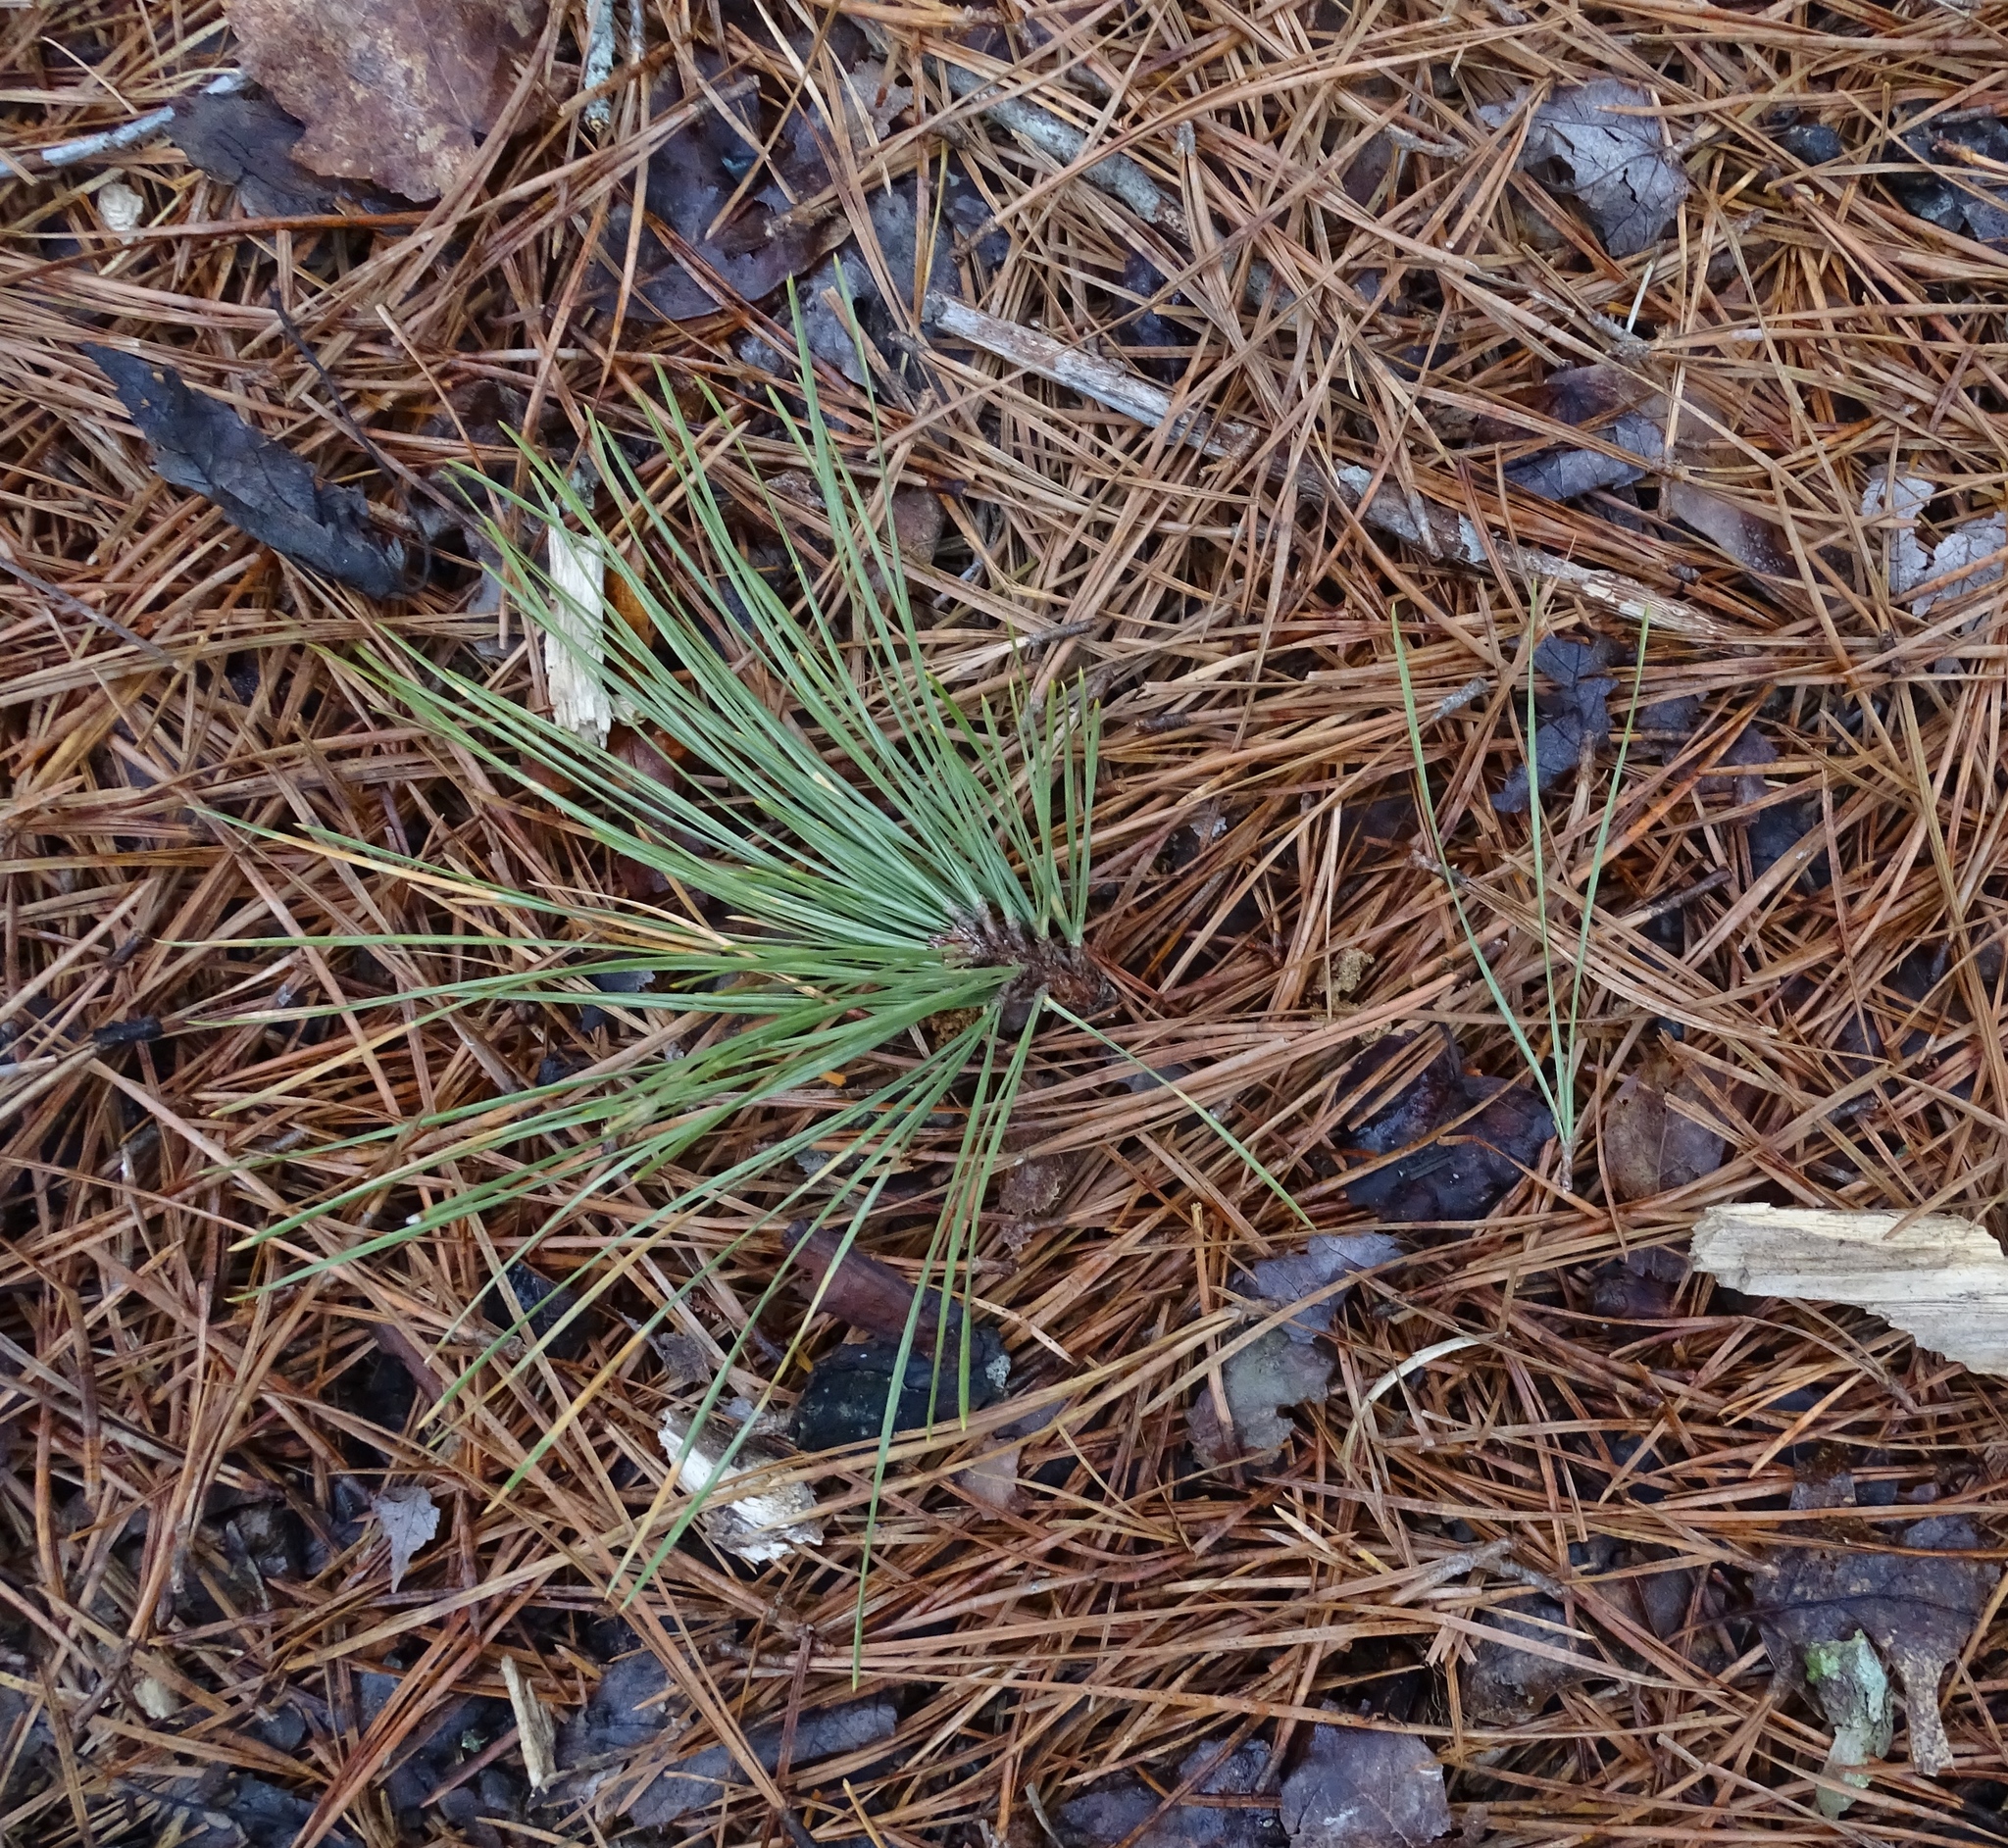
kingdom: Plantae
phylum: Tracheophyta
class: Pinopsida
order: Pinales
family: Pinaceae
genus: Pinus
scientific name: Pinus rigida
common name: Pitch pine
